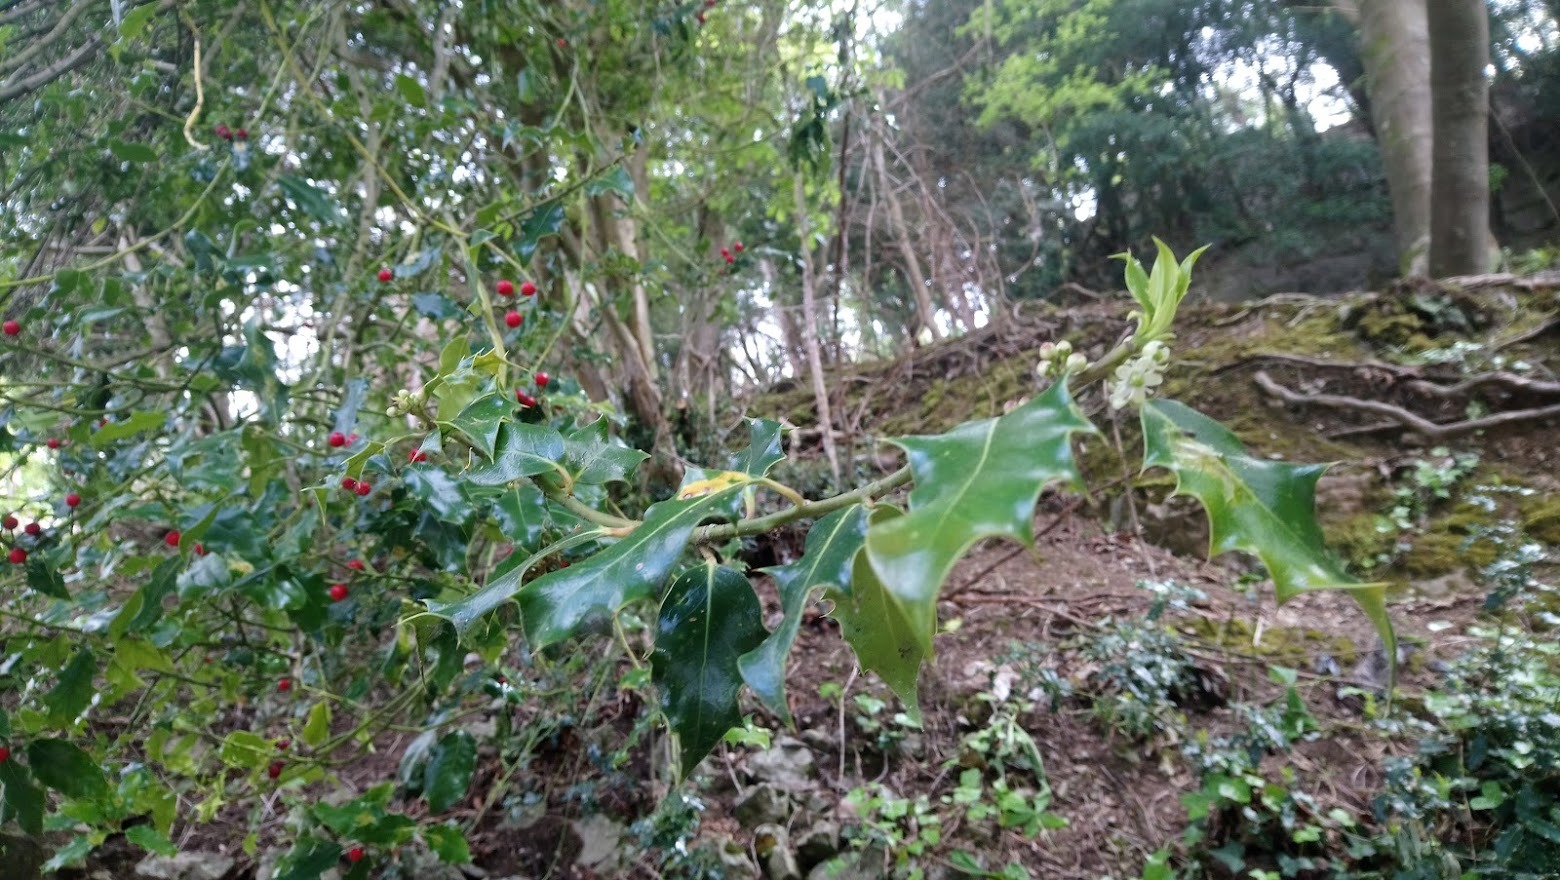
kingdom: Plantae
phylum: Tracheophyta
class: Magnoliopsida
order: Aquifoliales
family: Aquifoliaceae
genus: Ilex
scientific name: Ilex aquifolium
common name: English holly
